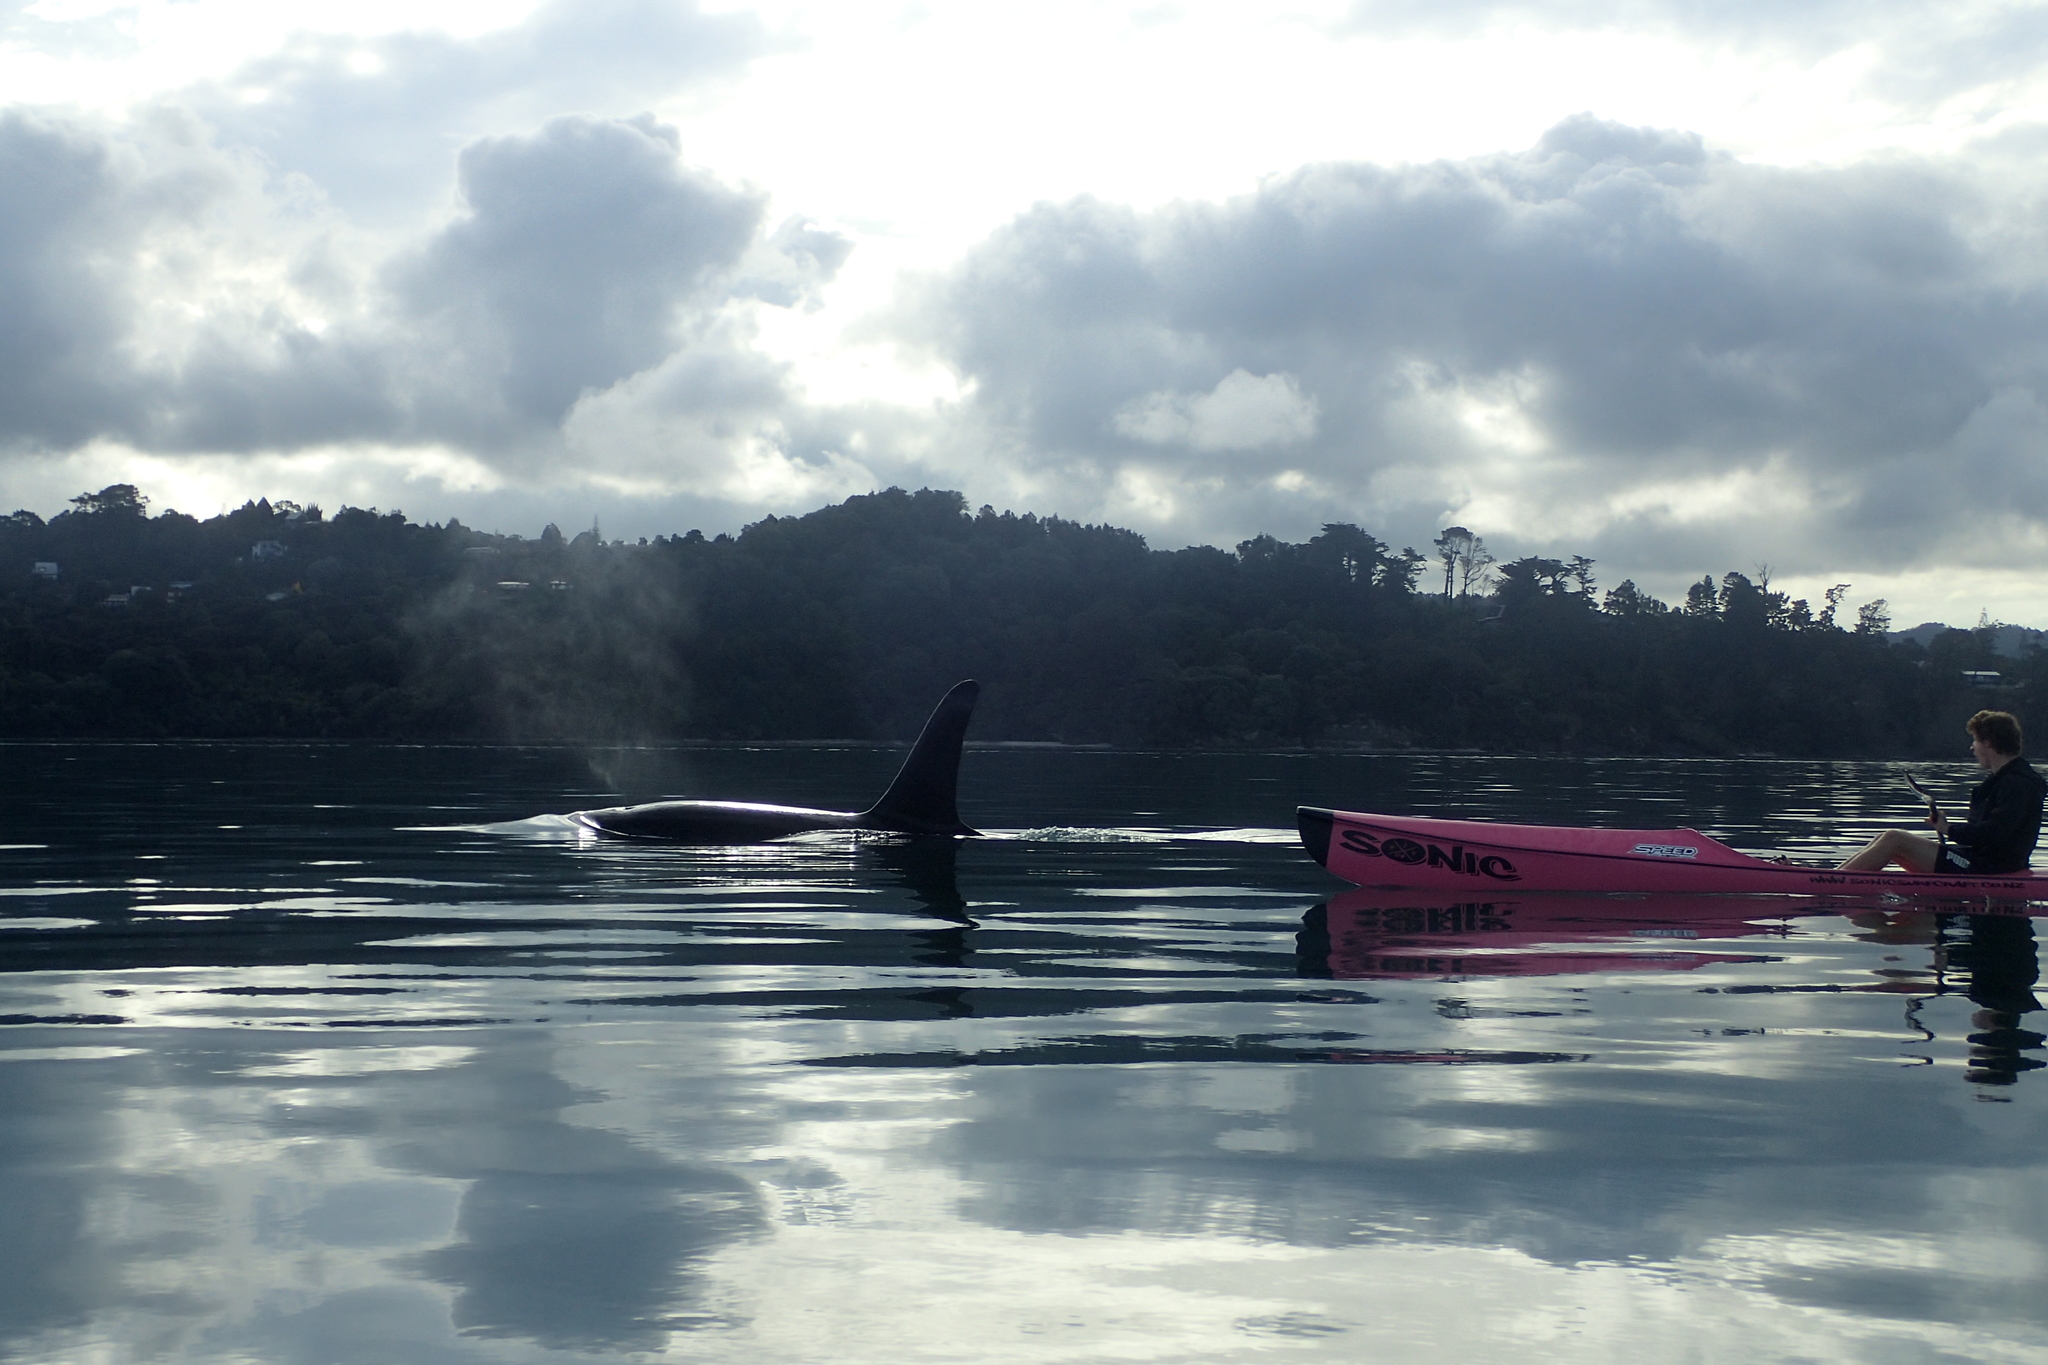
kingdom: Animalia
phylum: Chordata
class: Mammalia
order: Cetacea
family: Delphinidae
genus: Orcinus
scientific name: Orcinus orca
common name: Killer whale
